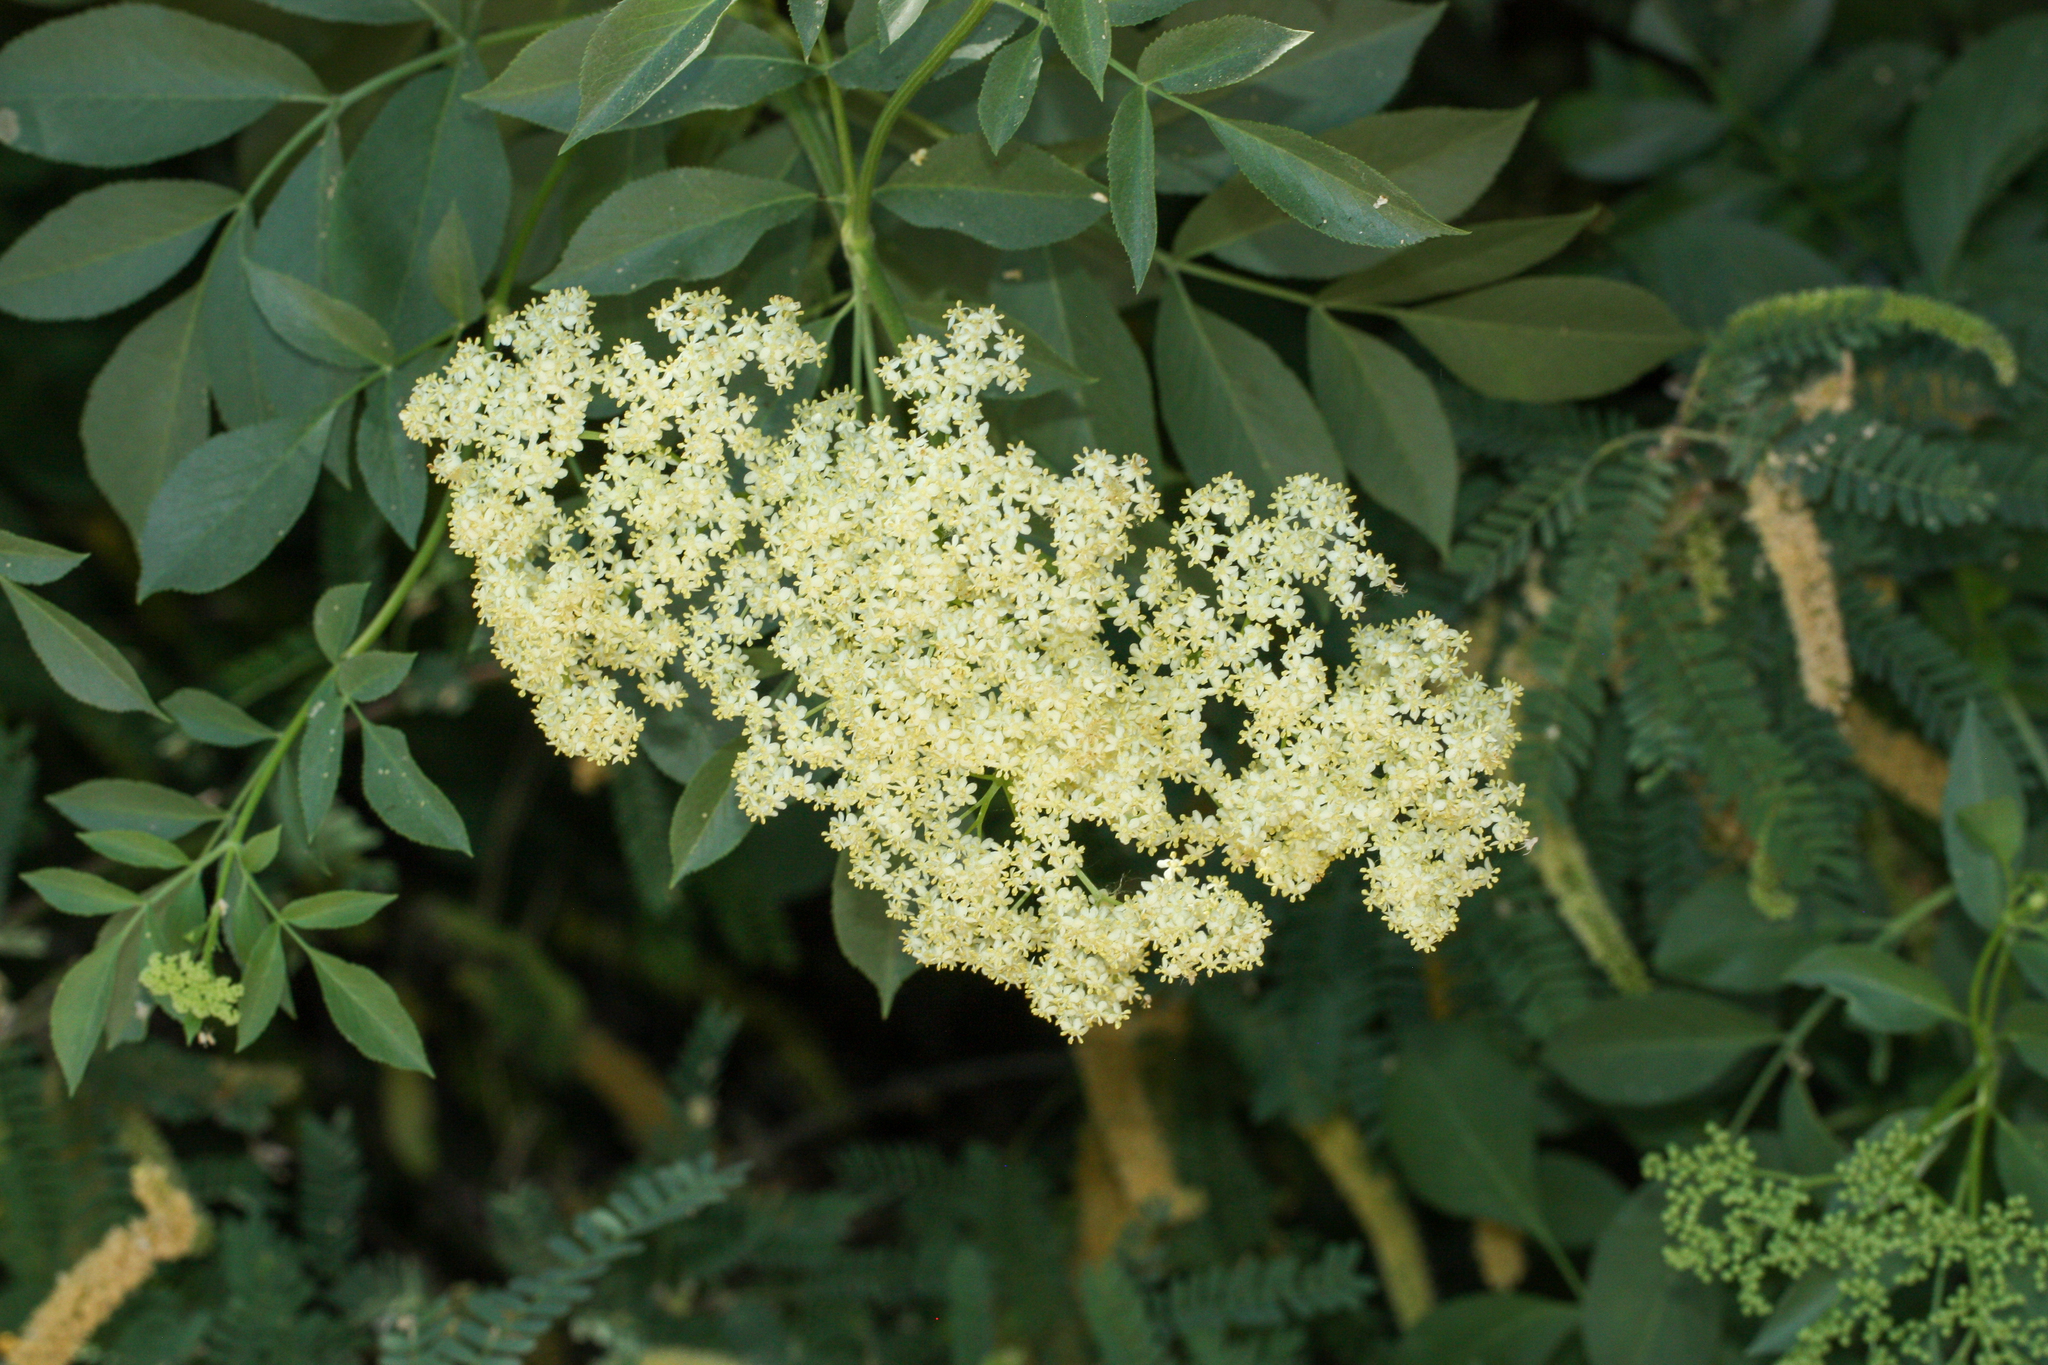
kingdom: Plantae
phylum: Tracheophyta
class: Magnoliopsida
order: Dipsacales
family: Viburnaceae
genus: Sambucus
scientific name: Sambucus cerulea
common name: Blue elder
